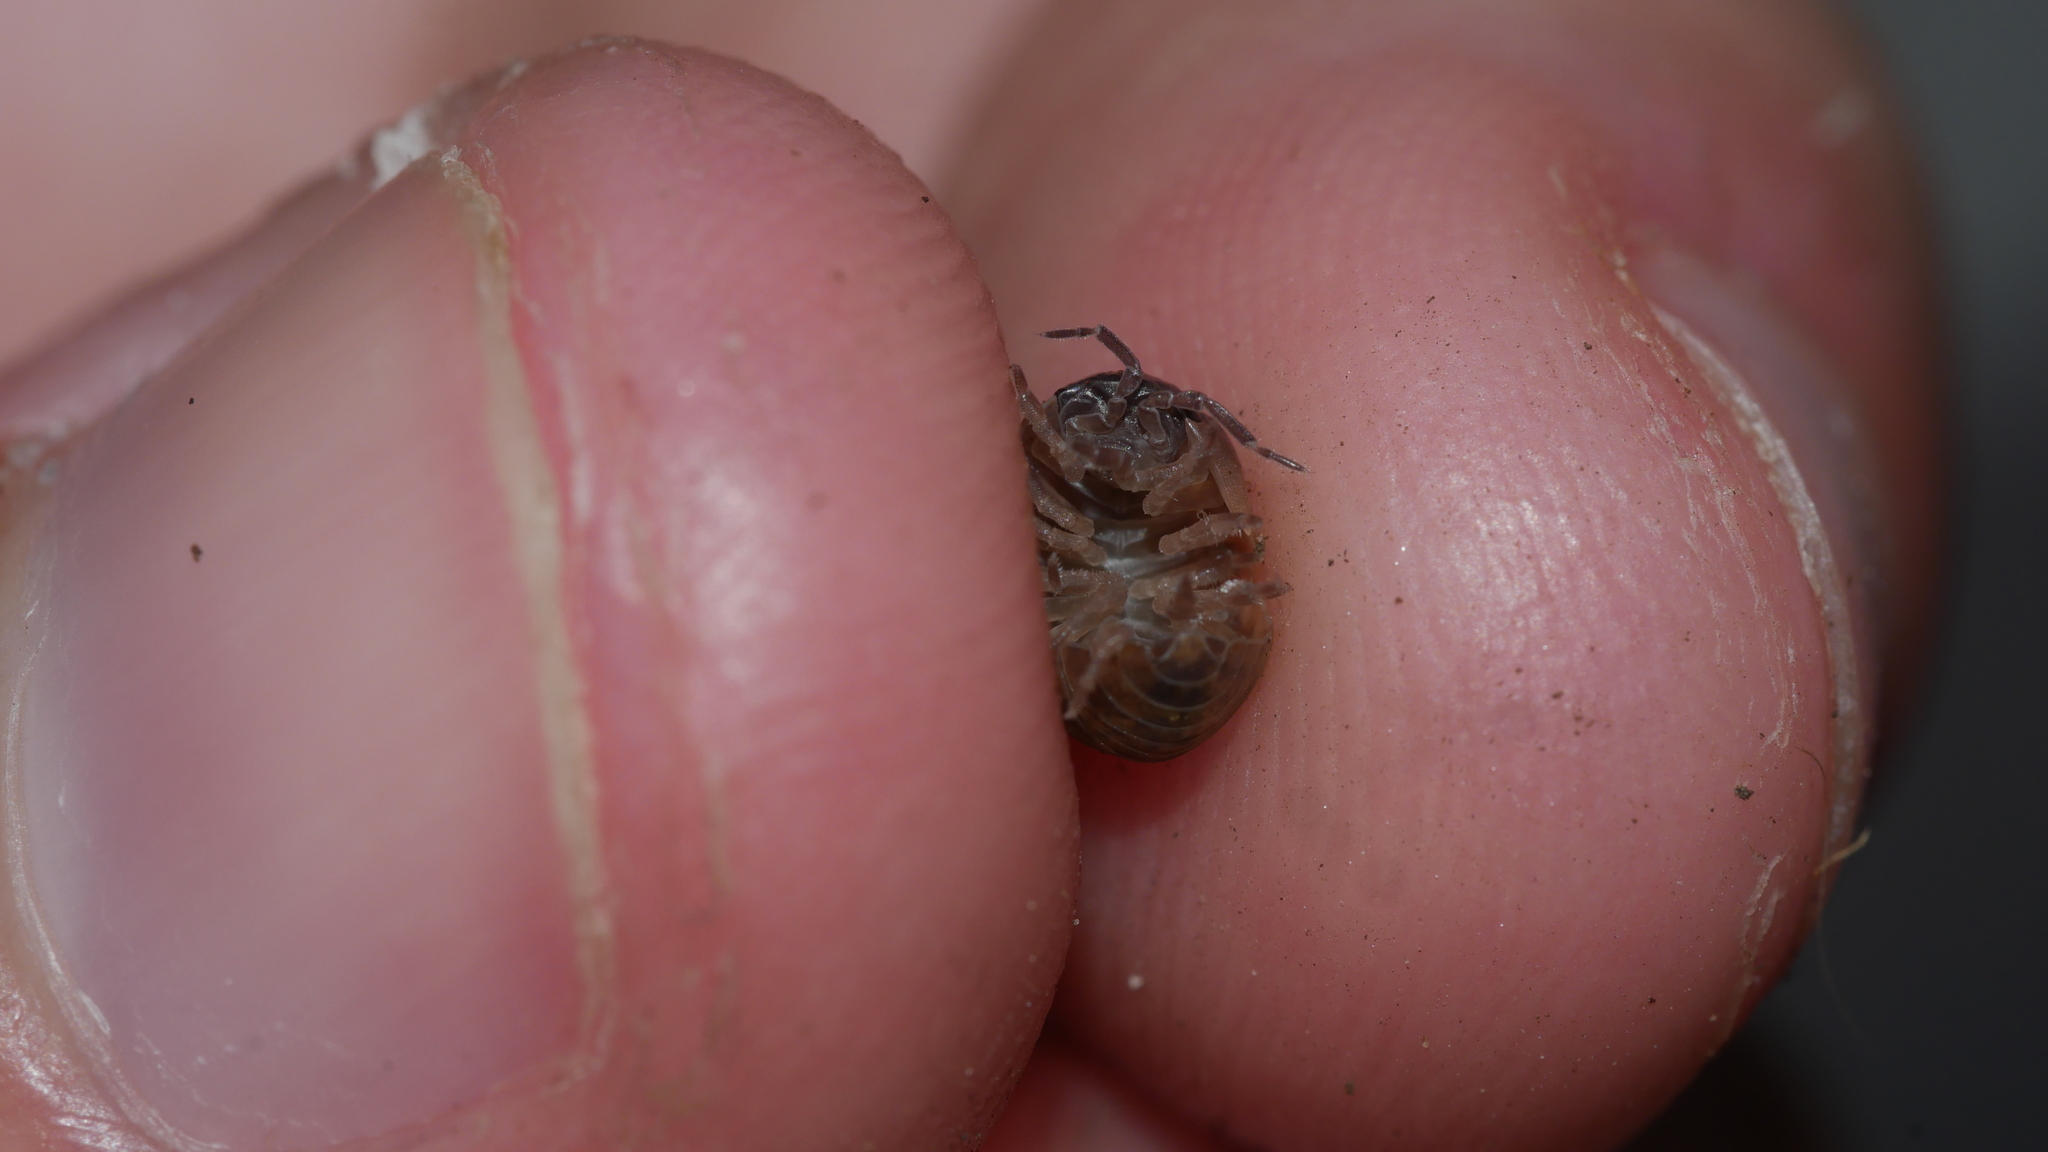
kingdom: Animalia
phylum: Arthropoda
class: Malacostraca
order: Isopoda
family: Armadillidiidae
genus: Armadillidium
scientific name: Armadillidium vulgare
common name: Common pill woodlouse
